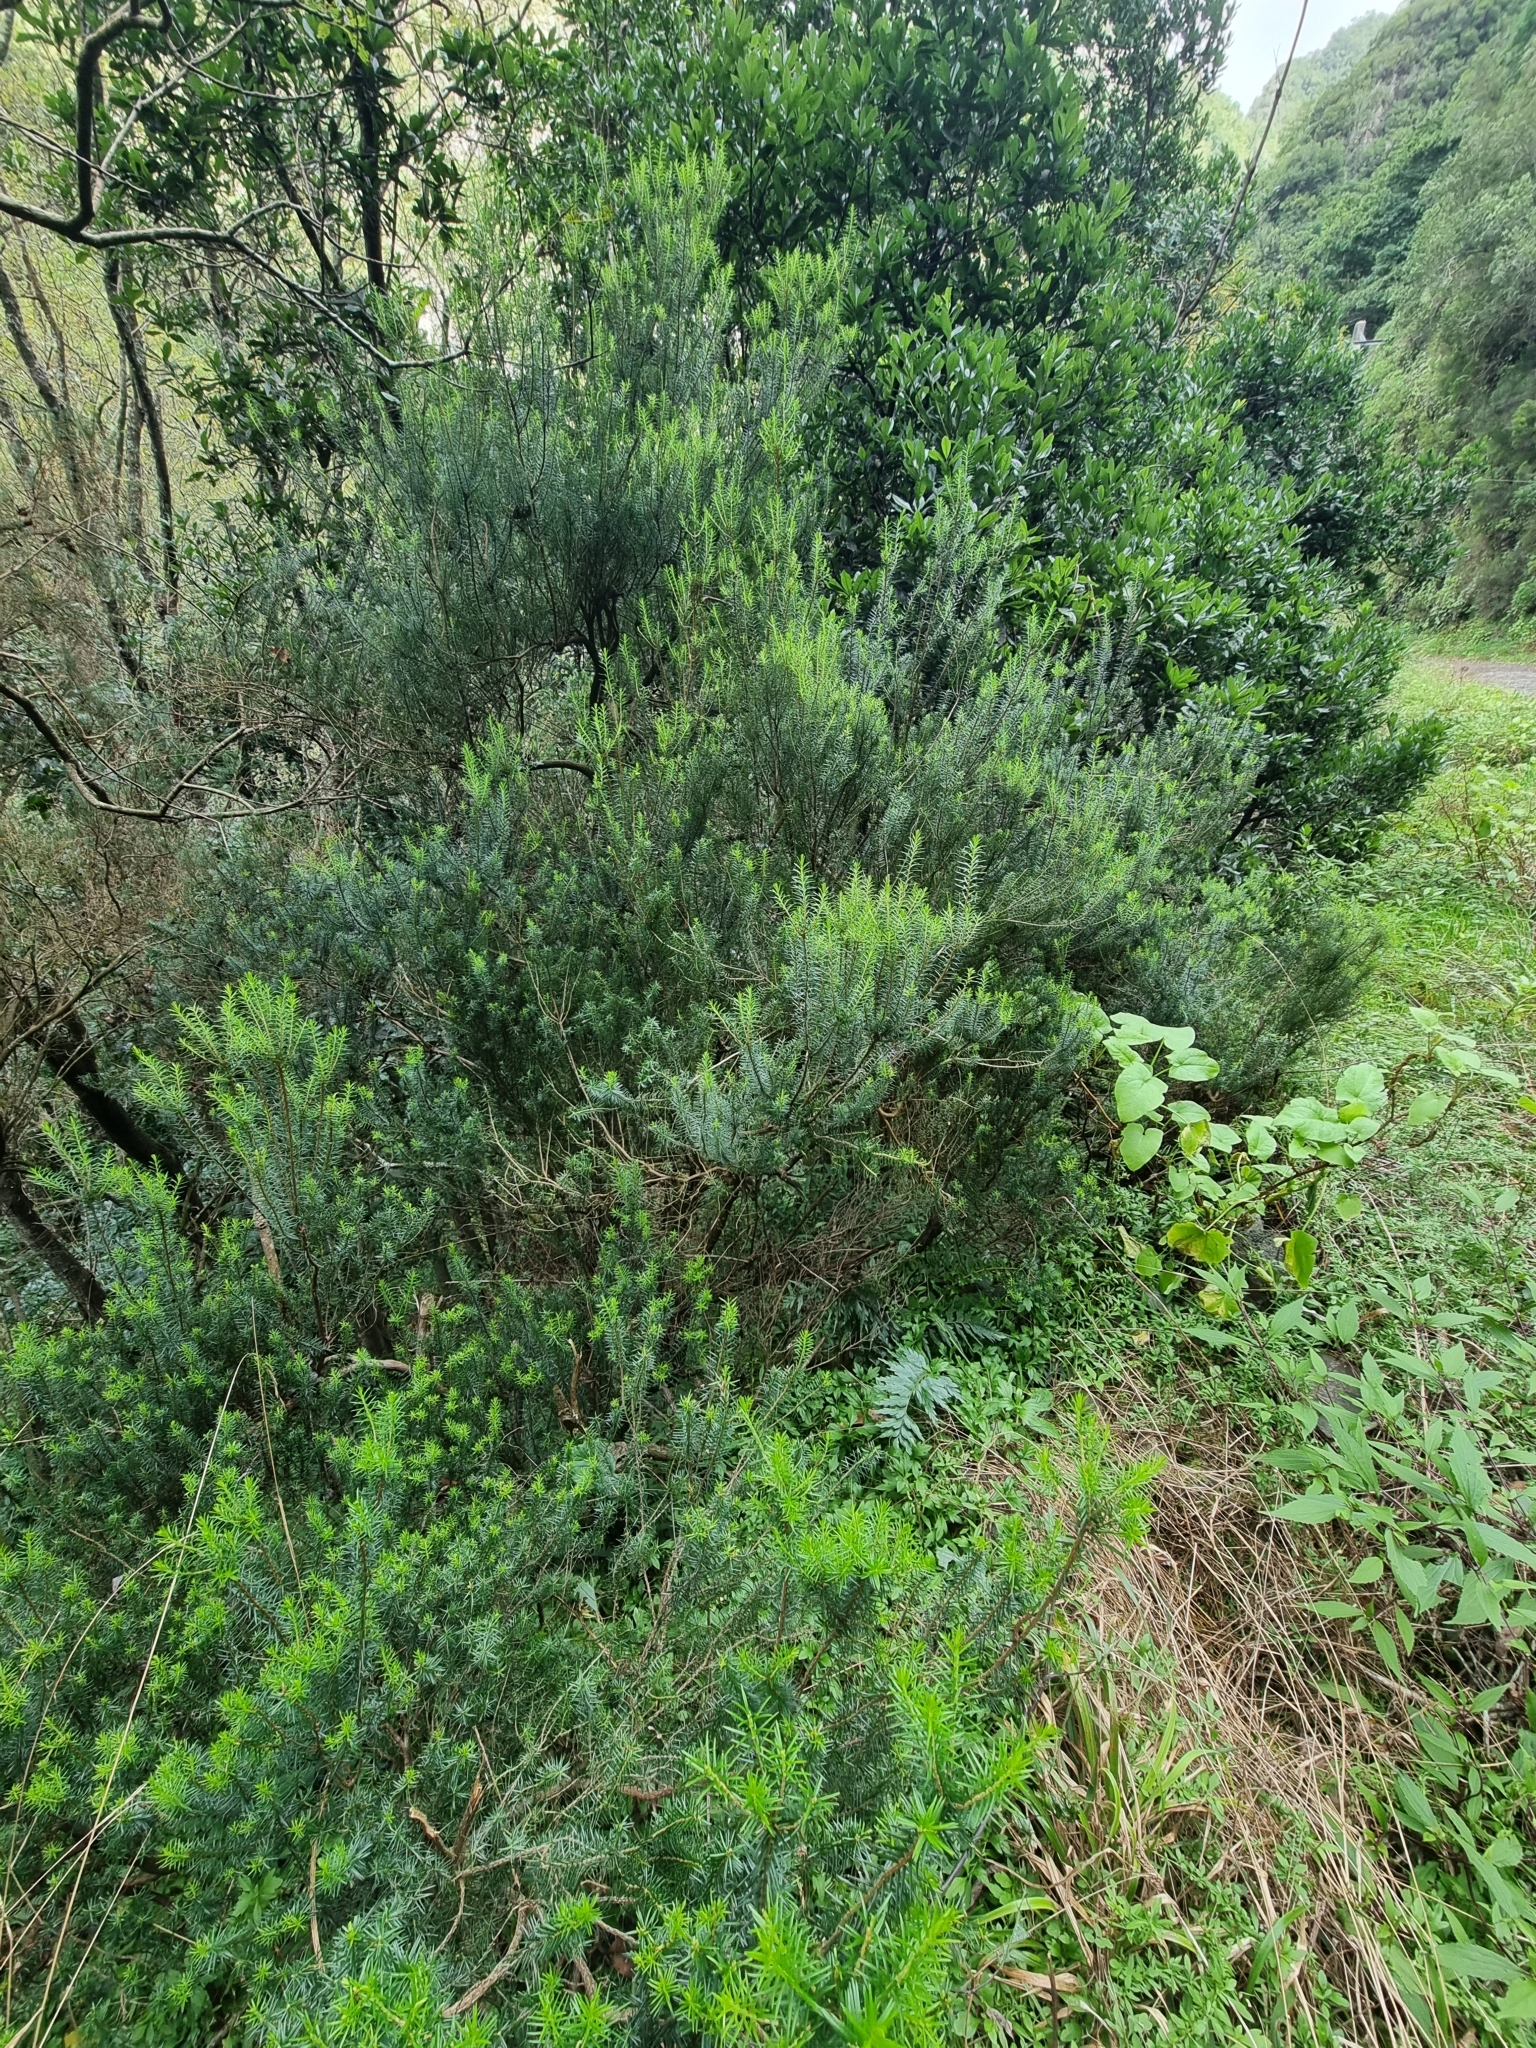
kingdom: Plantae
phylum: Tracheophyta
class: Magnoliopsida
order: Ericales
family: Ericaceae
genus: Erica
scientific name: Erica platycodon
